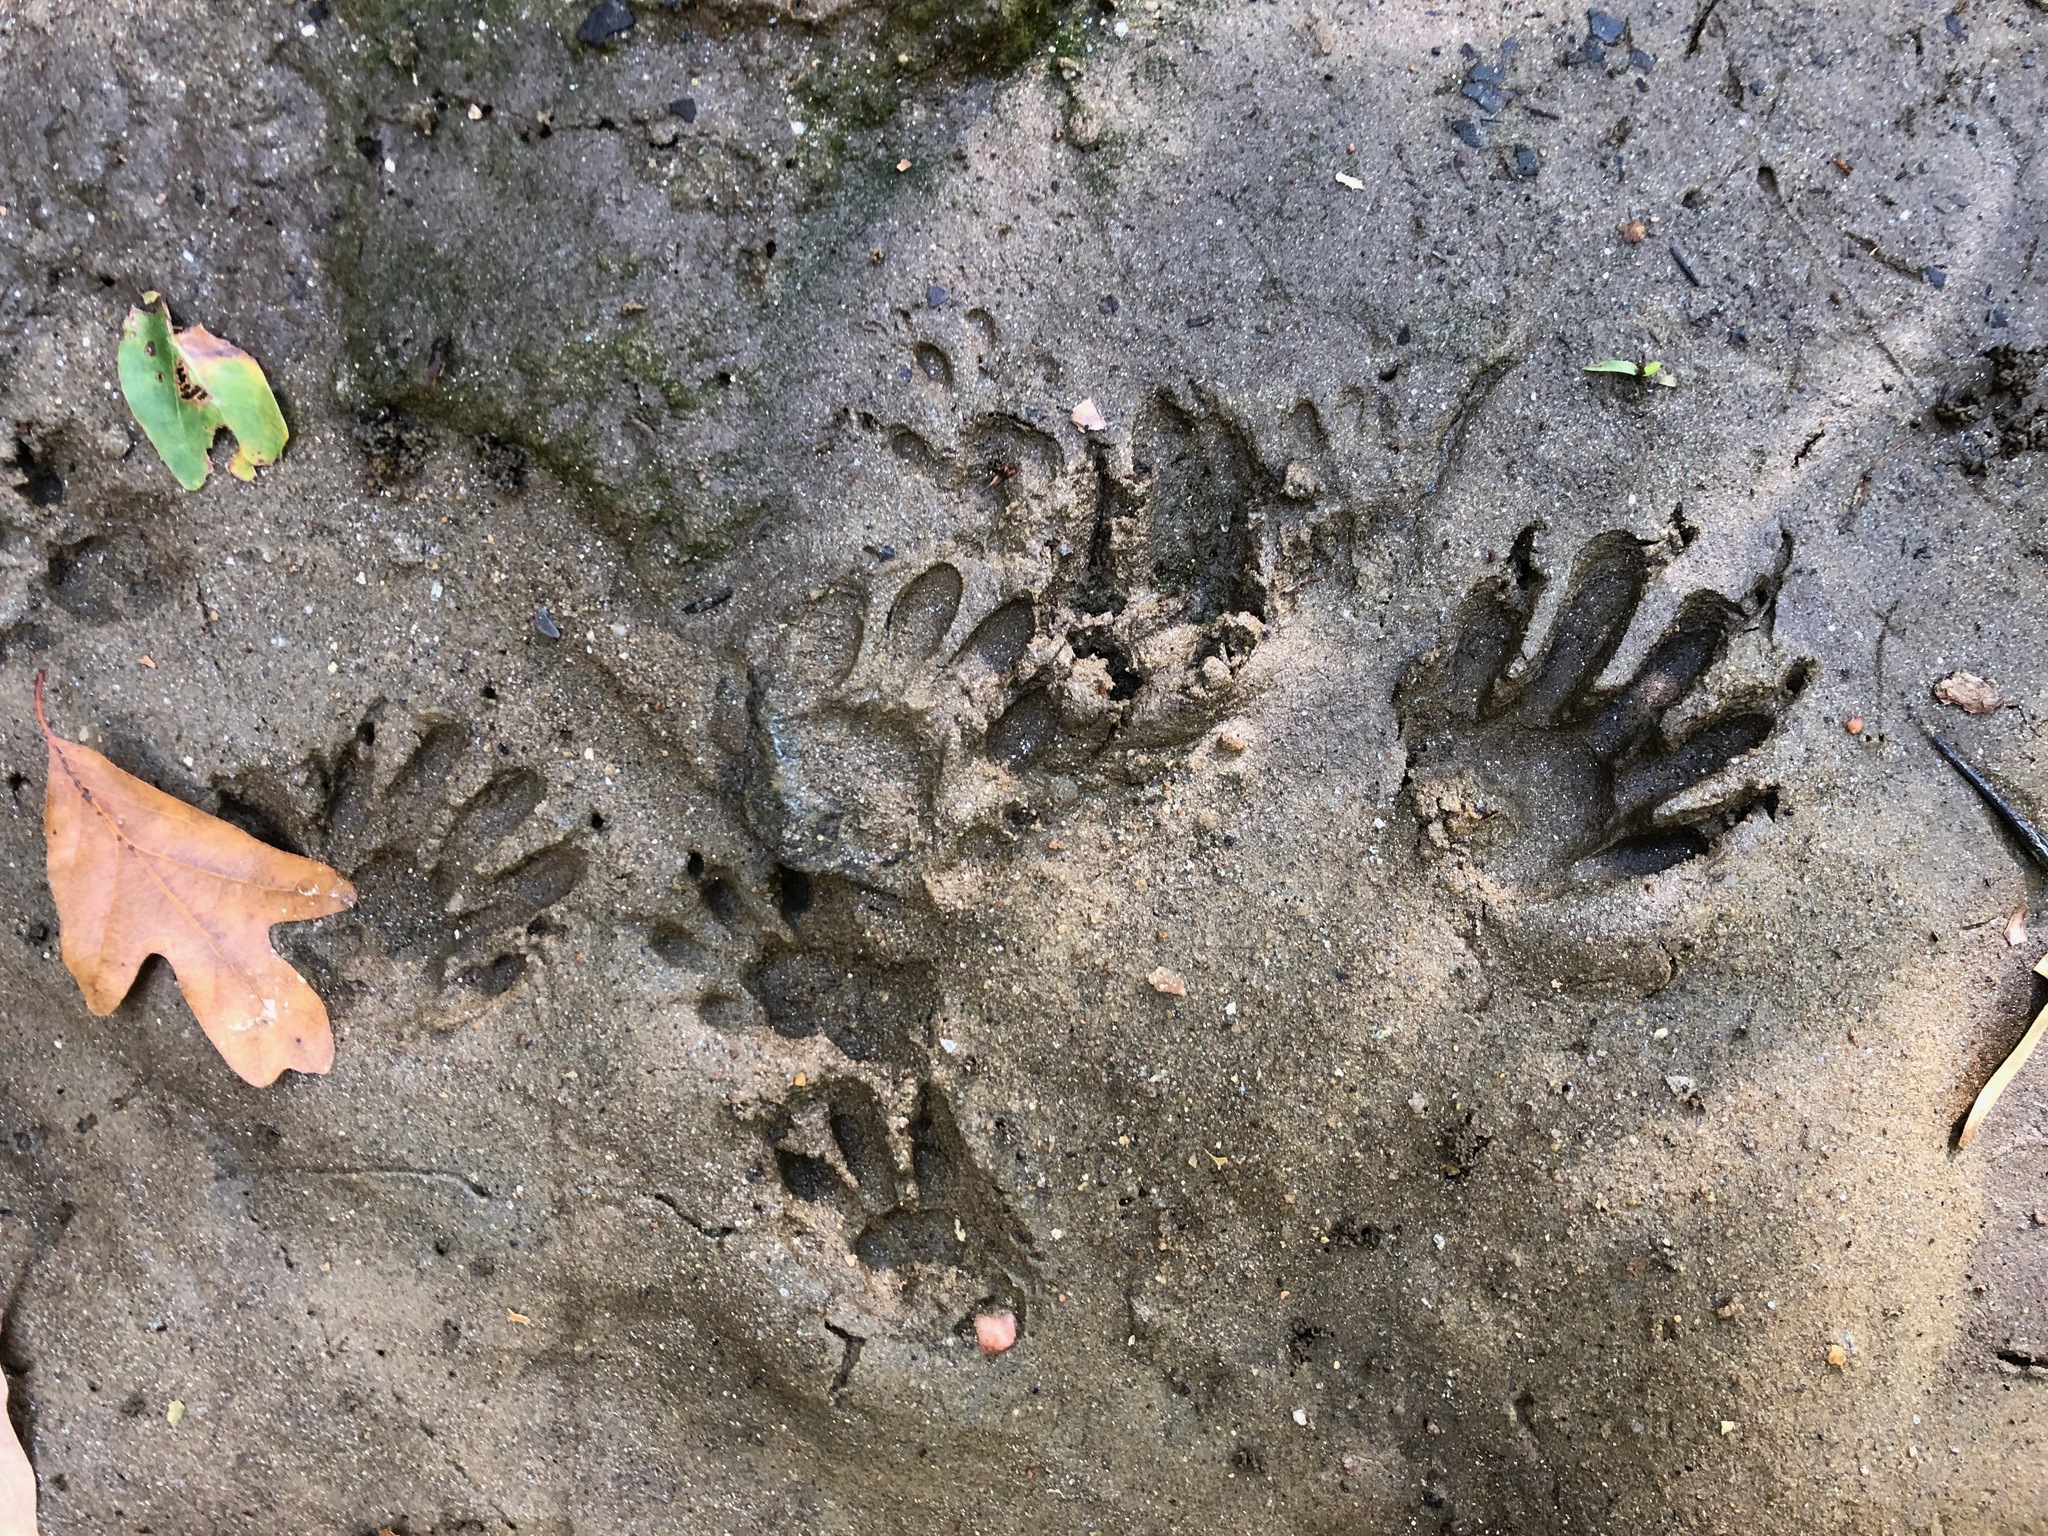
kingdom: Animalia
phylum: Chordata
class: Mammalia
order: Carnivora
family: Procyonidae
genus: Procyon
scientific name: Procyon lotor
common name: Raccoon
